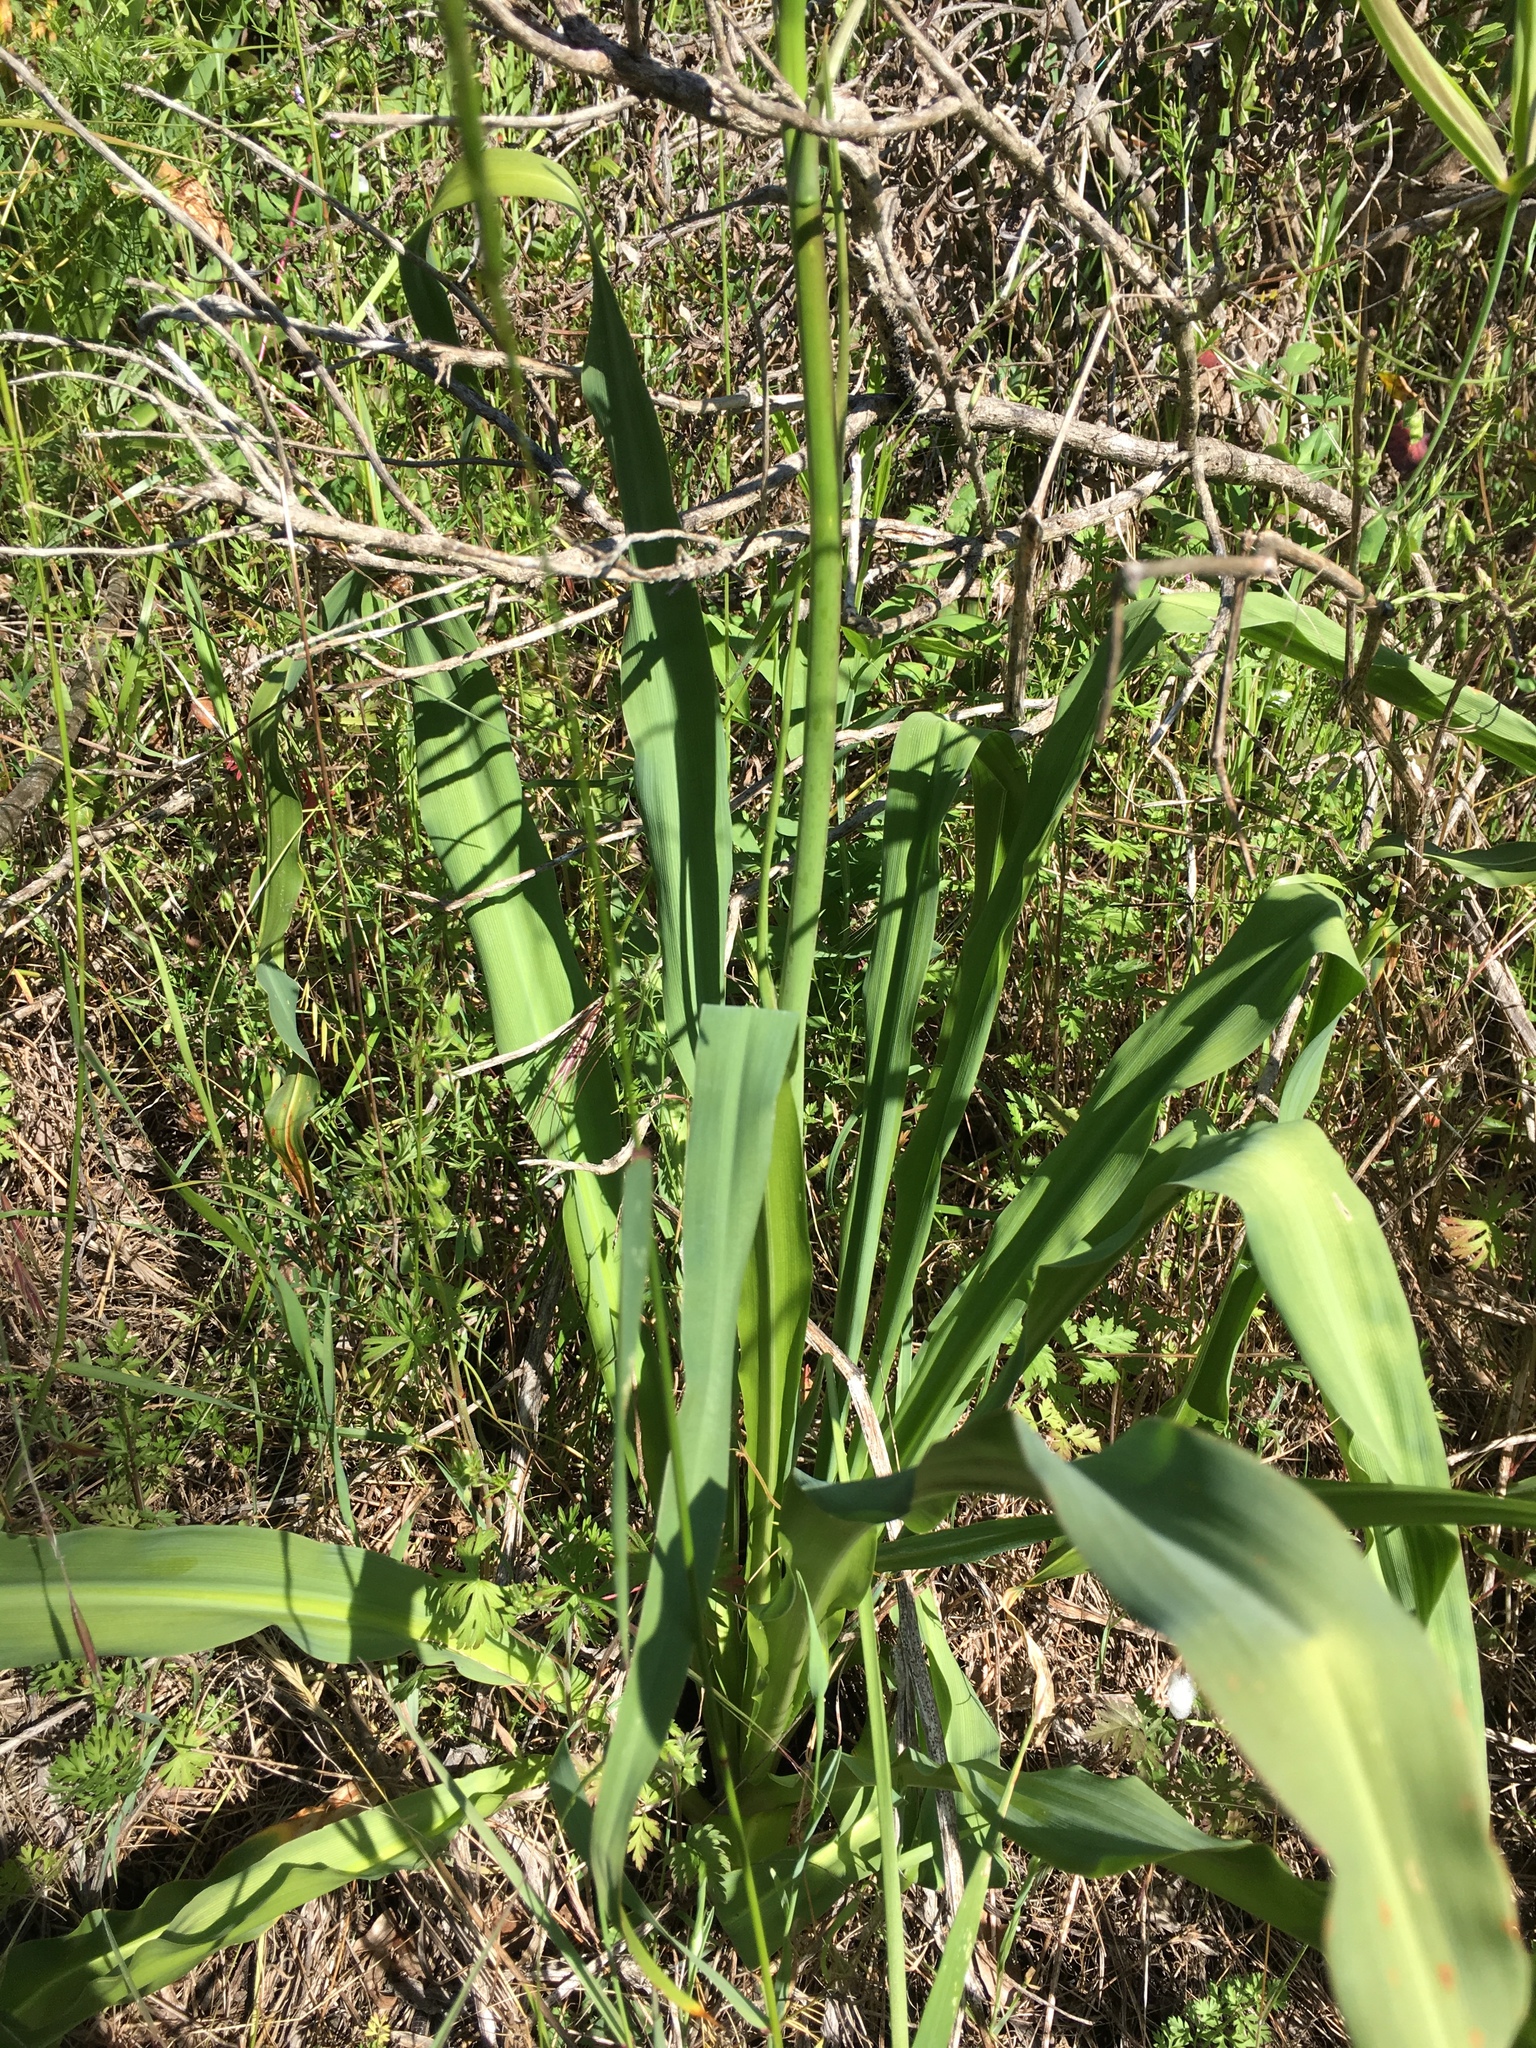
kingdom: Plantae
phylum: Tracheophyta
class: Liliopsida
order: Asparagales
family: Asparagaceae
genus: Chlorogalum
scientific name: Chlorogalum pomeridianum
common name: Amole
